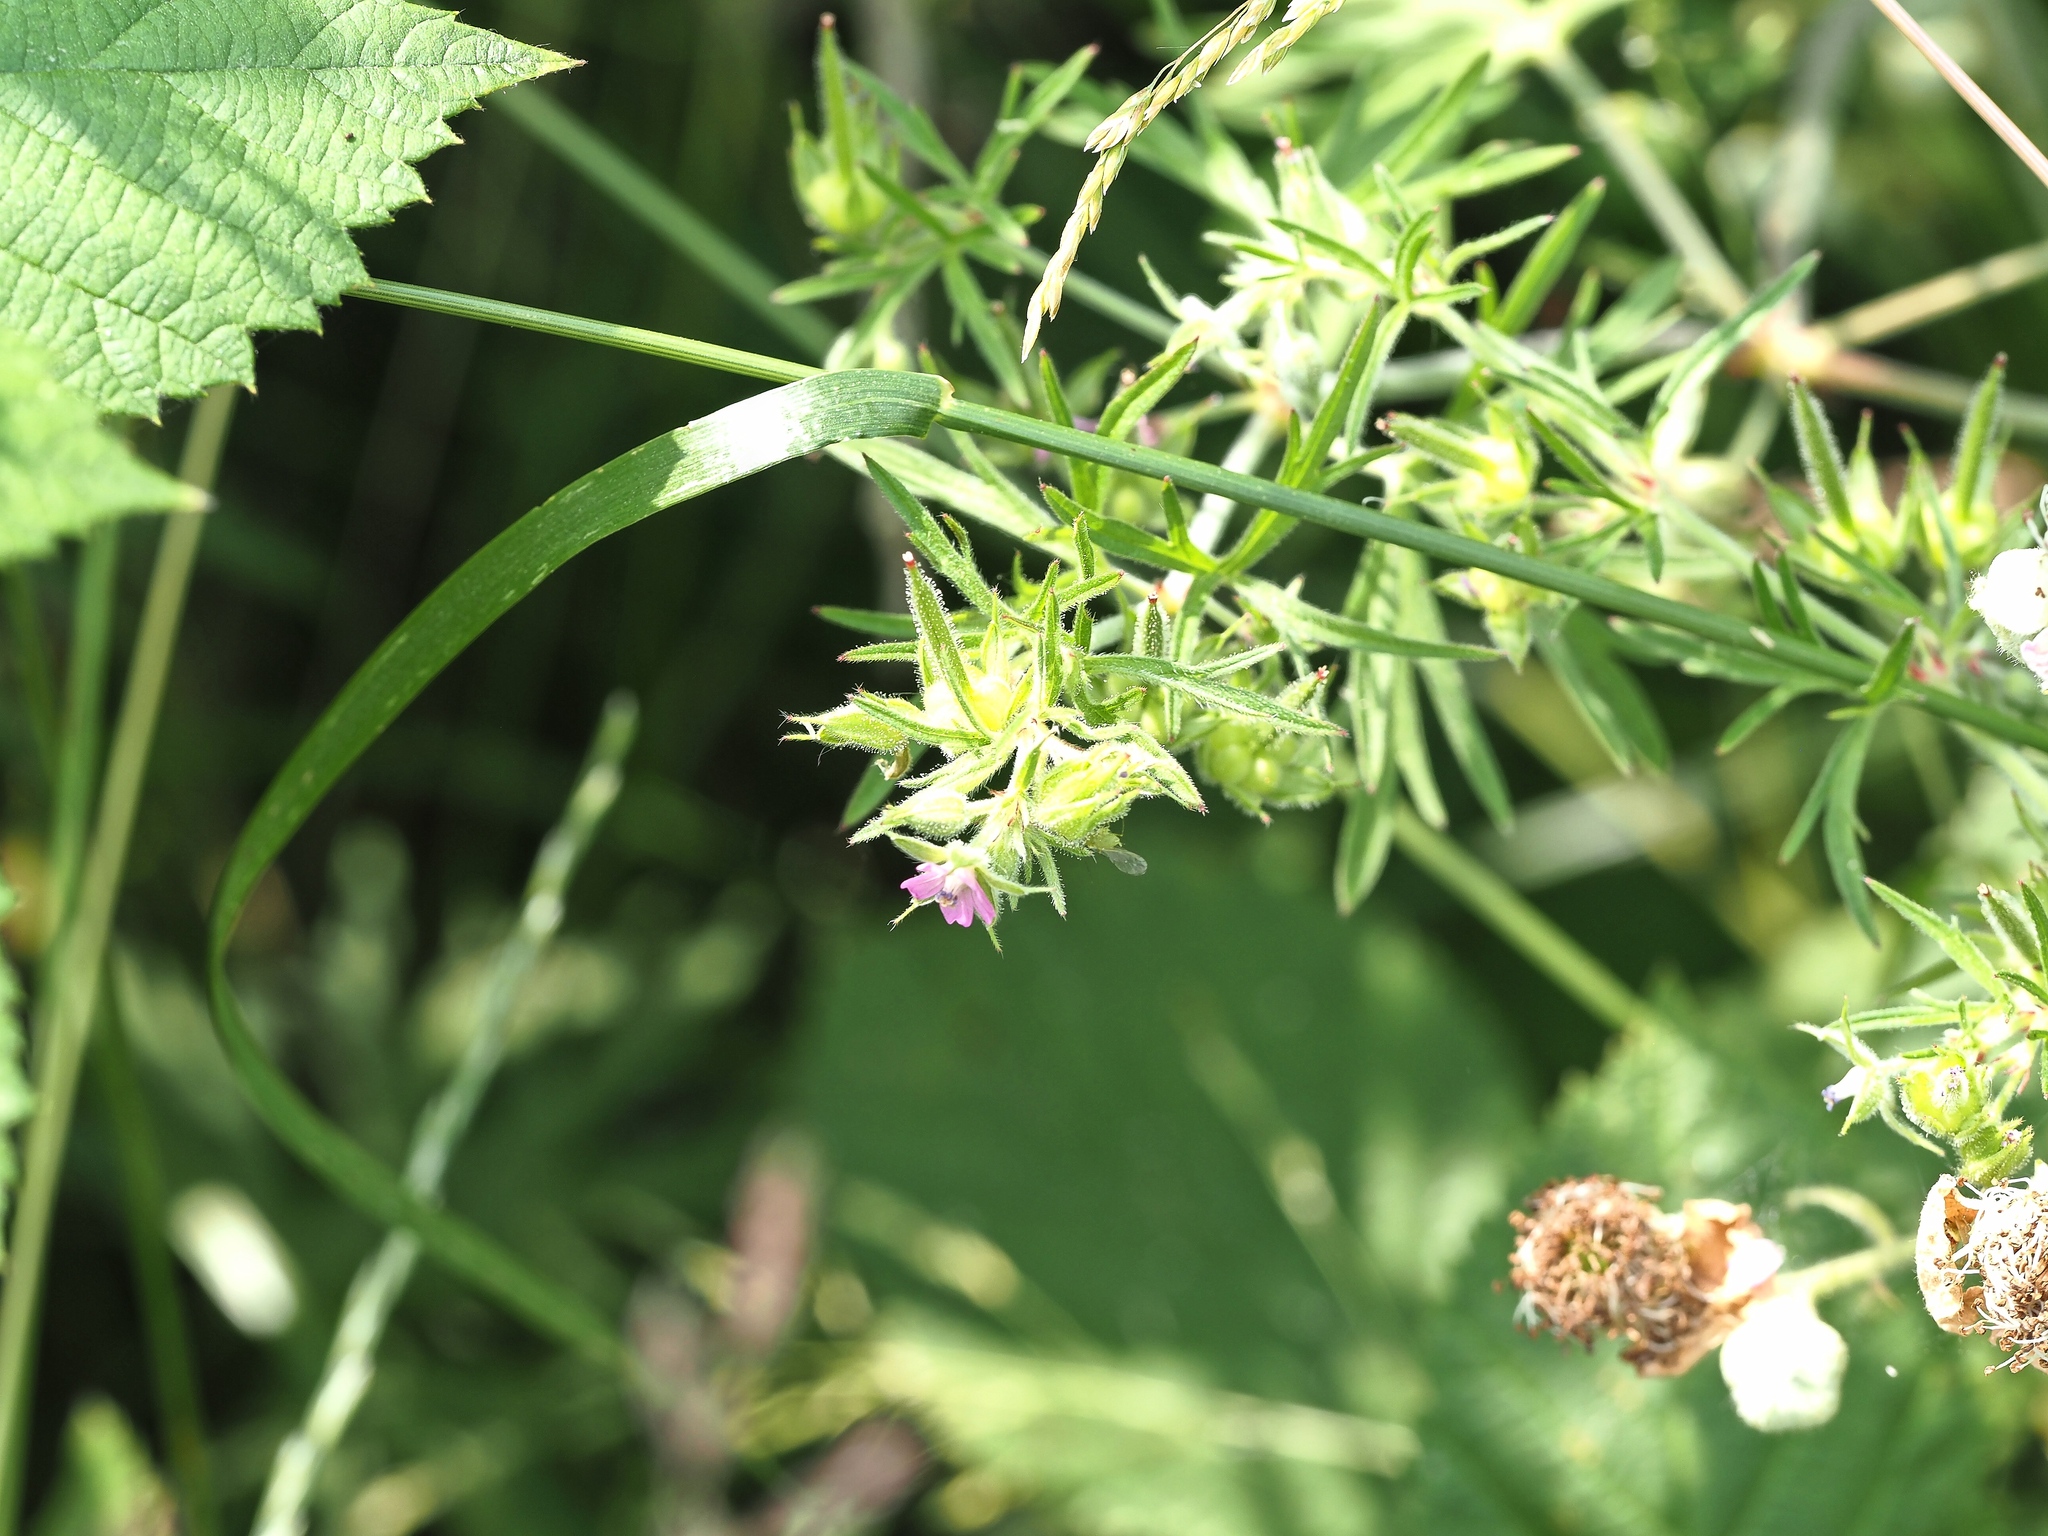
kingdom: Plantae
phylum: Tracheophyta
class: Magnoliopsida
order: Geraniales
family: Geraniaceae
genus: Geranium
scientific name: Geranium dissectum
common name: Cut-leaved crane's-bill
